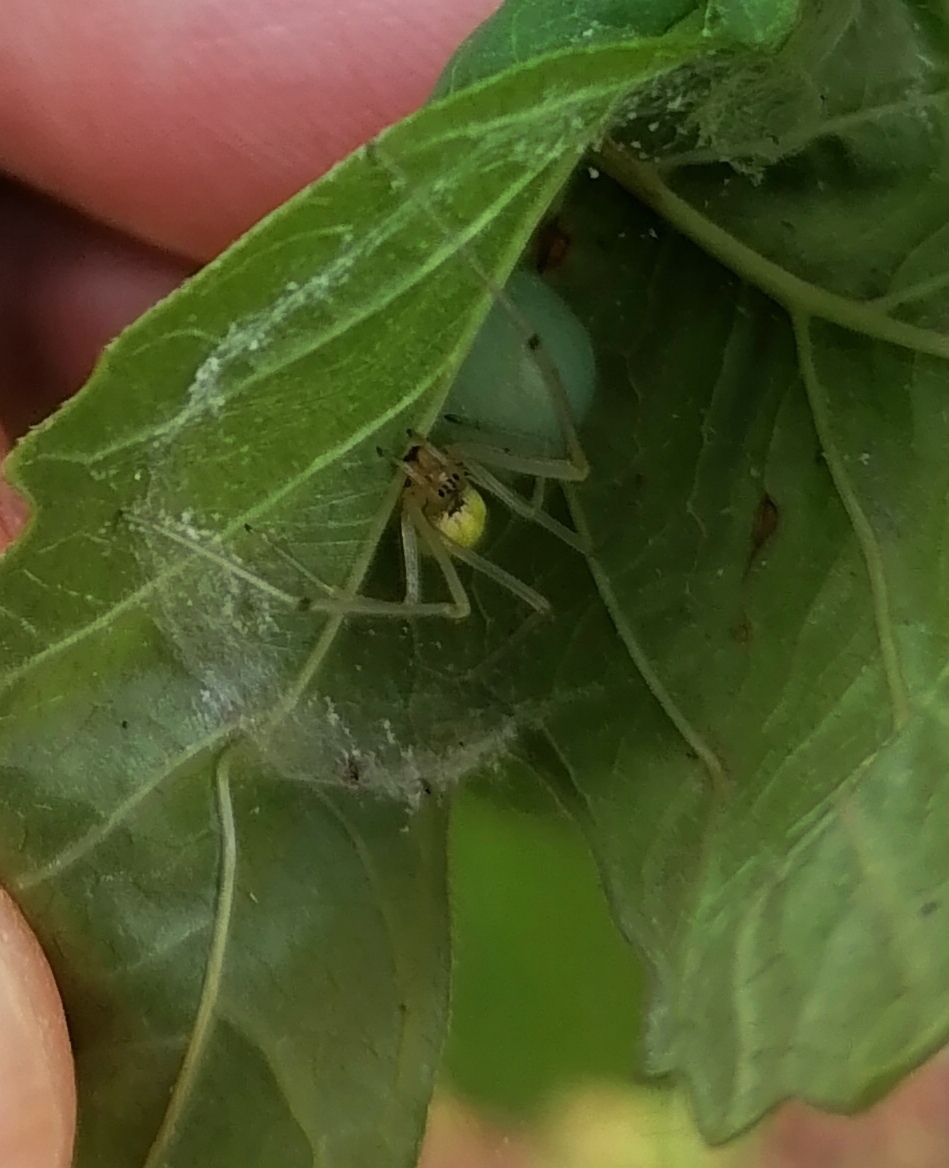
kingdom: Animalia
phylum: Arthropoda
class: Arachnida
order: Araneae
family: Theridiidae
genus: Enoplognatha
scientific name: Enoplognatha ovata
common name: Common candy-striped spider
